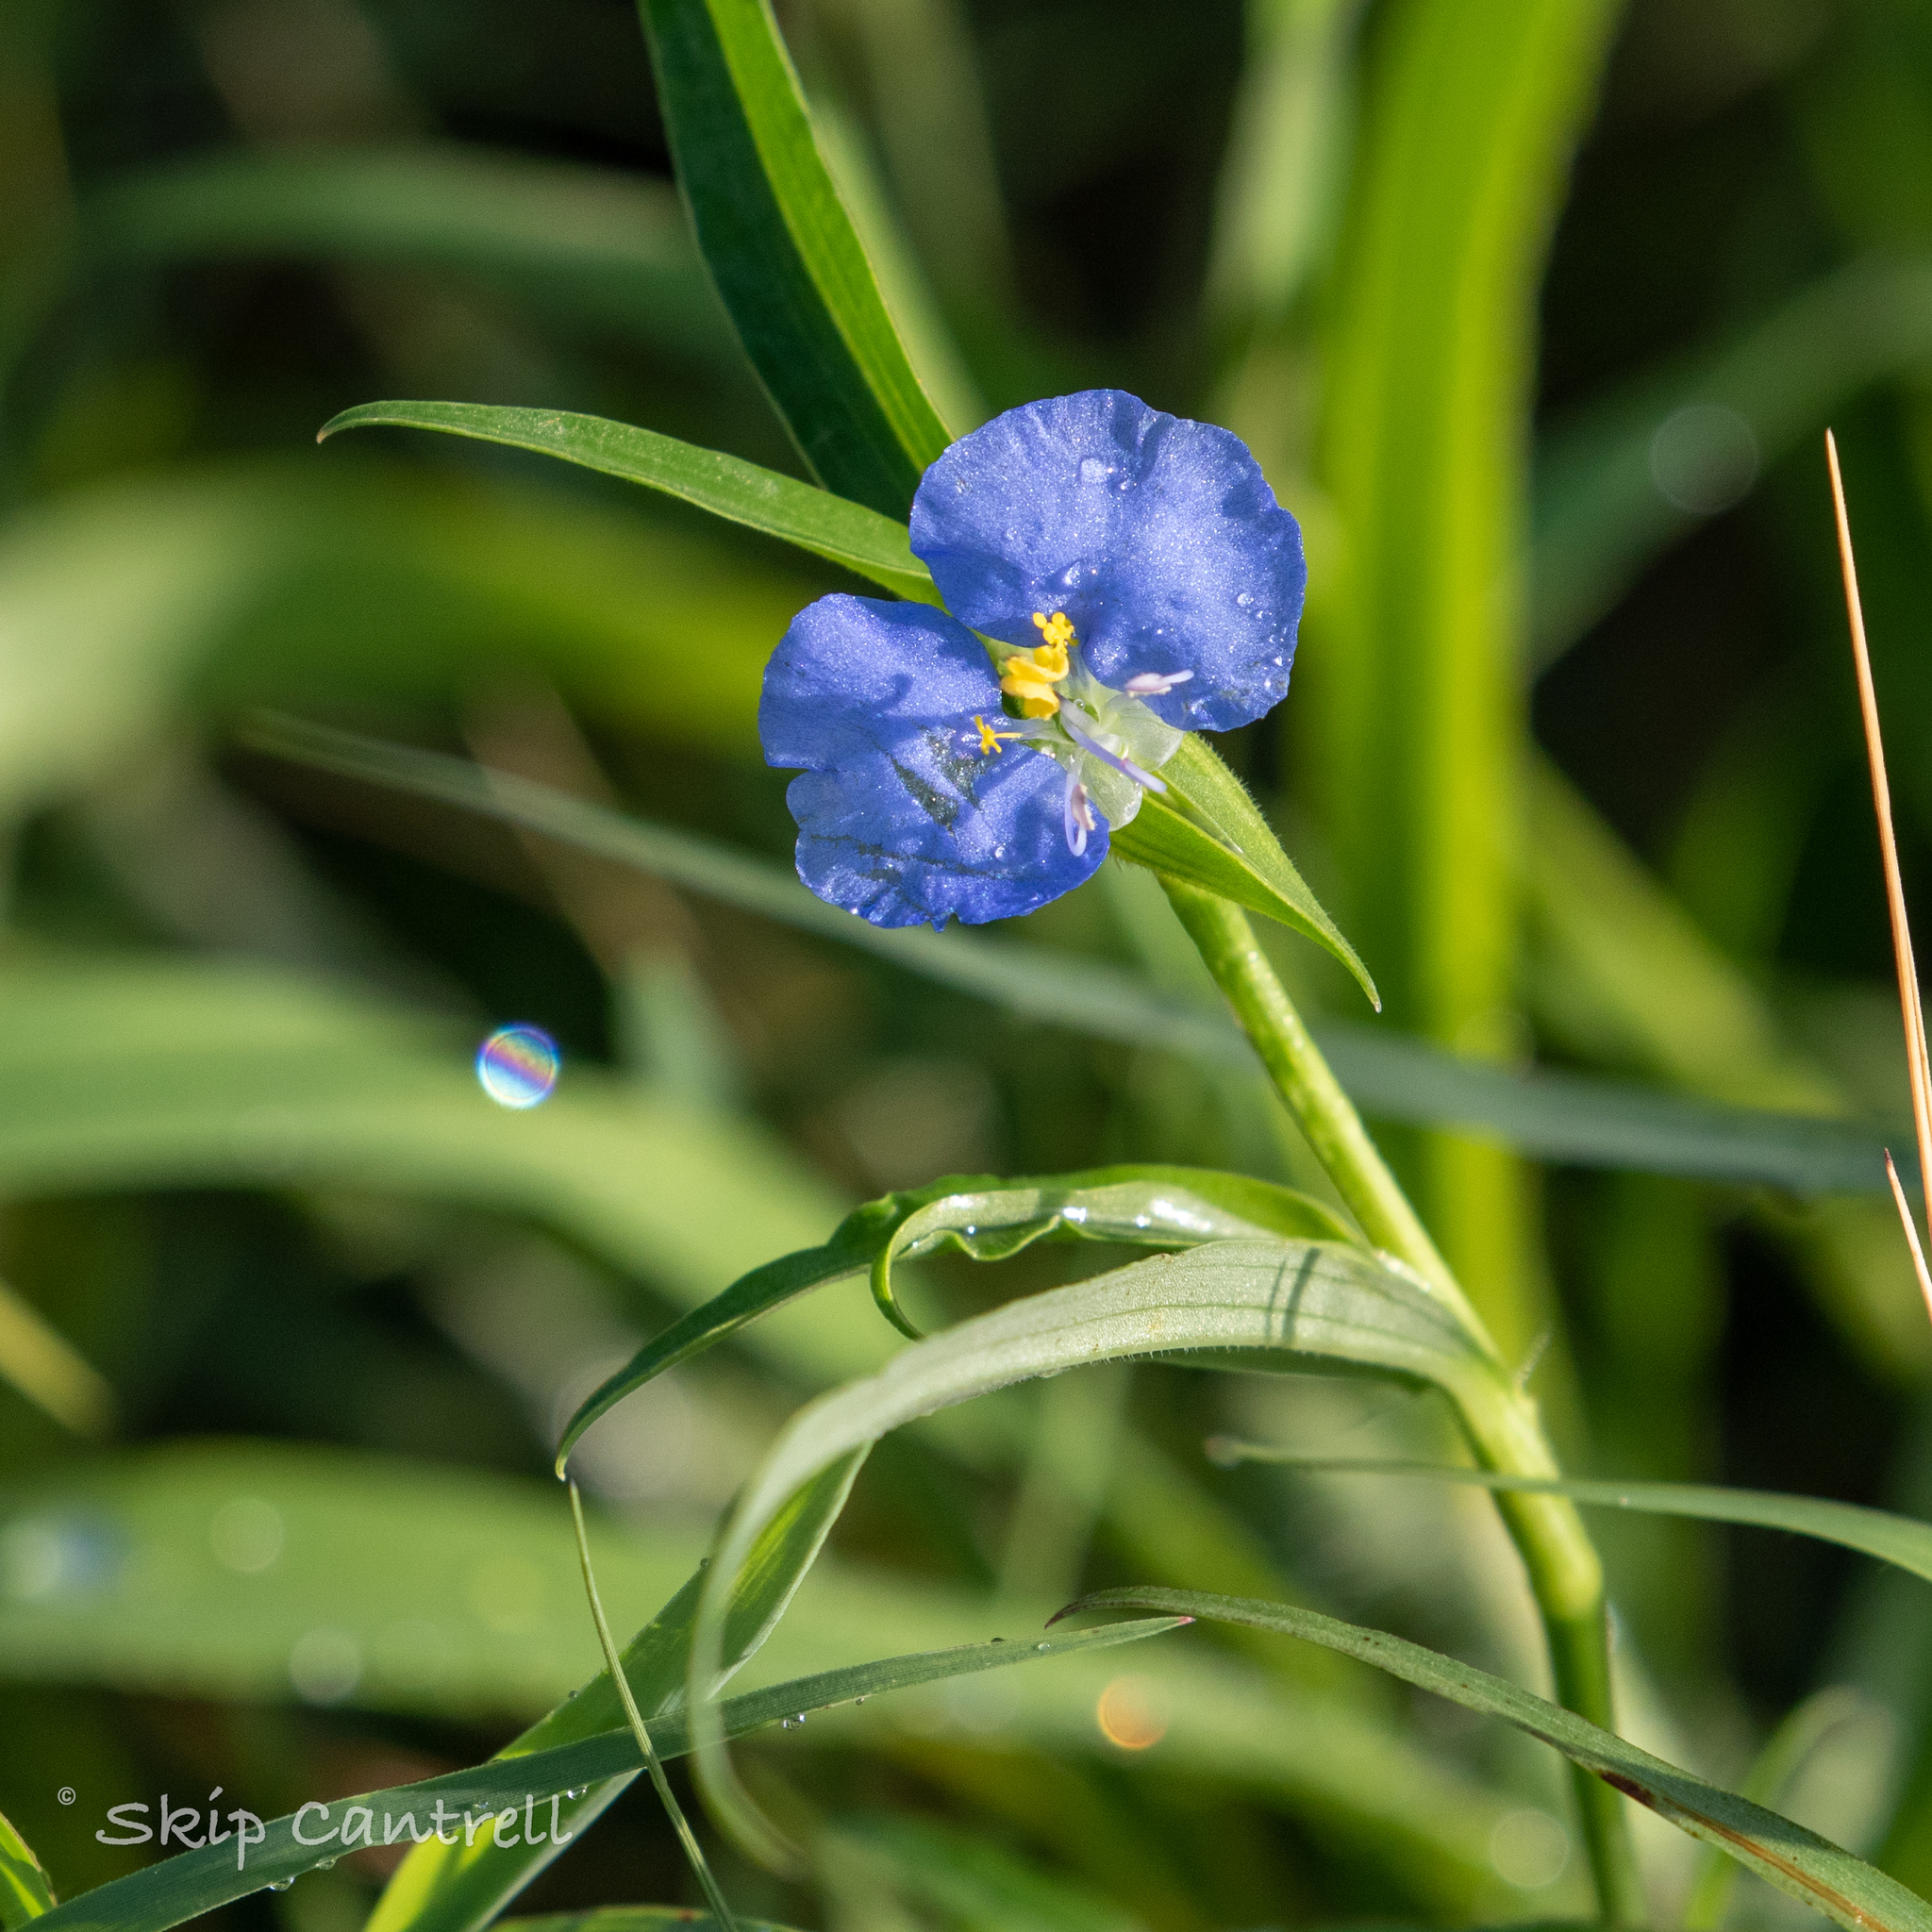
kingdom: Plantae
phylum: Tracheophyta
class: Liliopsida
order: Commelinales
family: Commelinaceae
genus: Commelina
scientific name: Commelina erecta
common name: Blousel blommetjie
